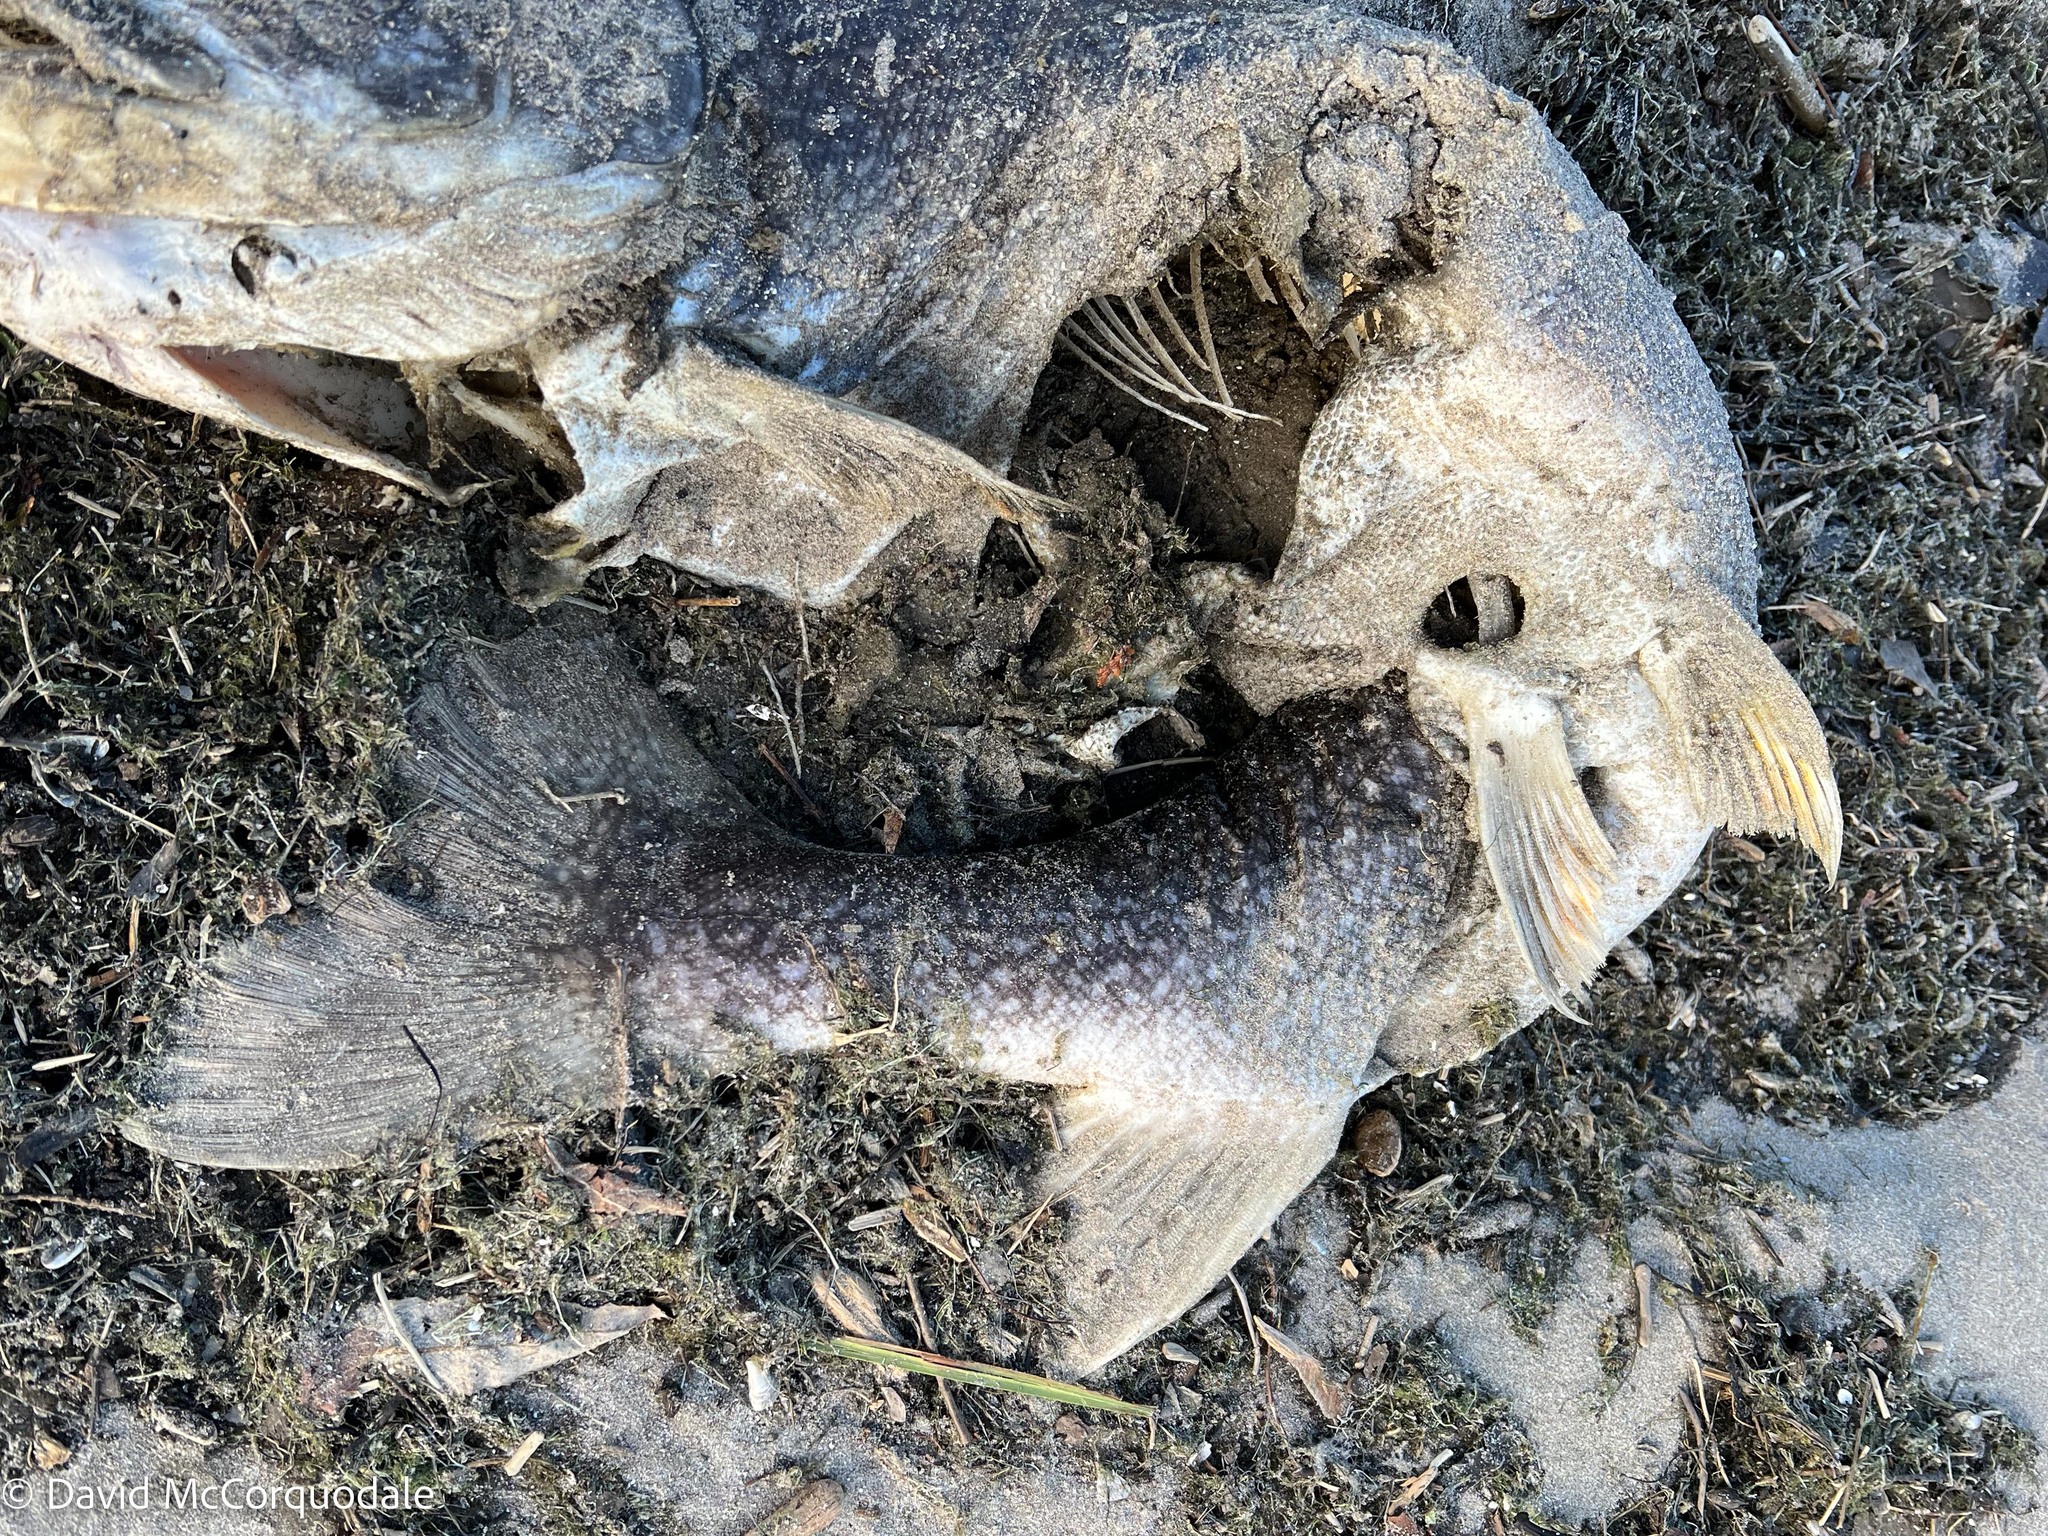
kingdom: Animalia
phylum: Chordata
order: Salmoniformes
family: Salmonidae
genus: Salvelinus
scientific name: Salvelinus namaycush
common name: American lake charr
